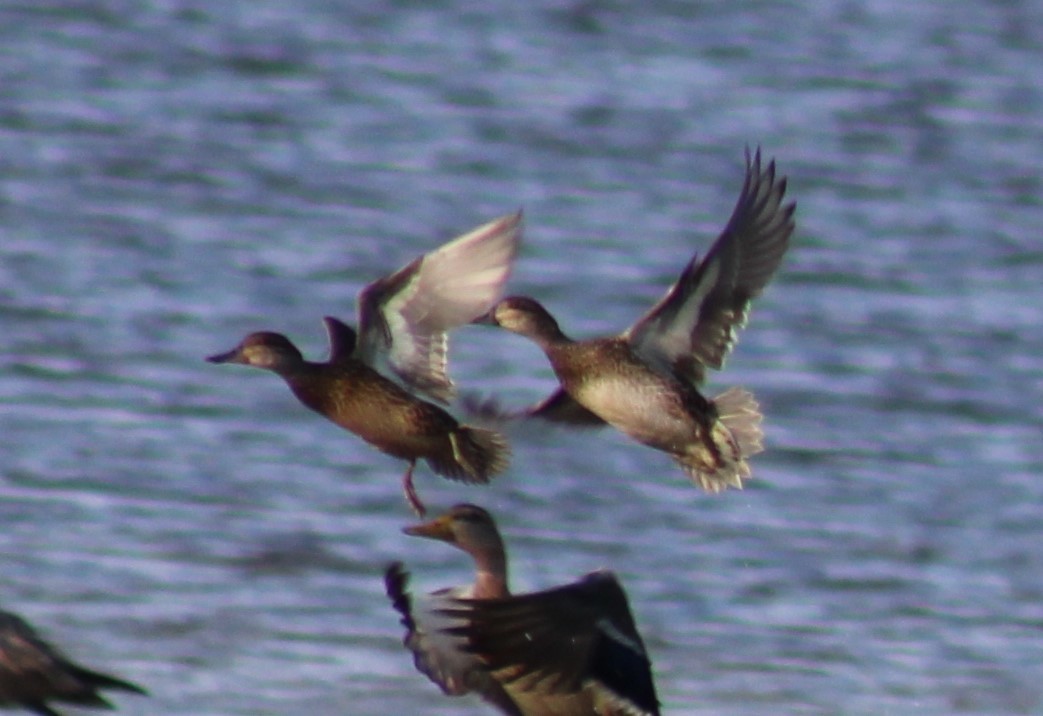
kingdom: Animalia
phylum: Chordata
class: Aves
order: Anseriformes
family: Anatidae
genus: Spatula
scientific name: Spatula discors
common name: Blue-winged teal
